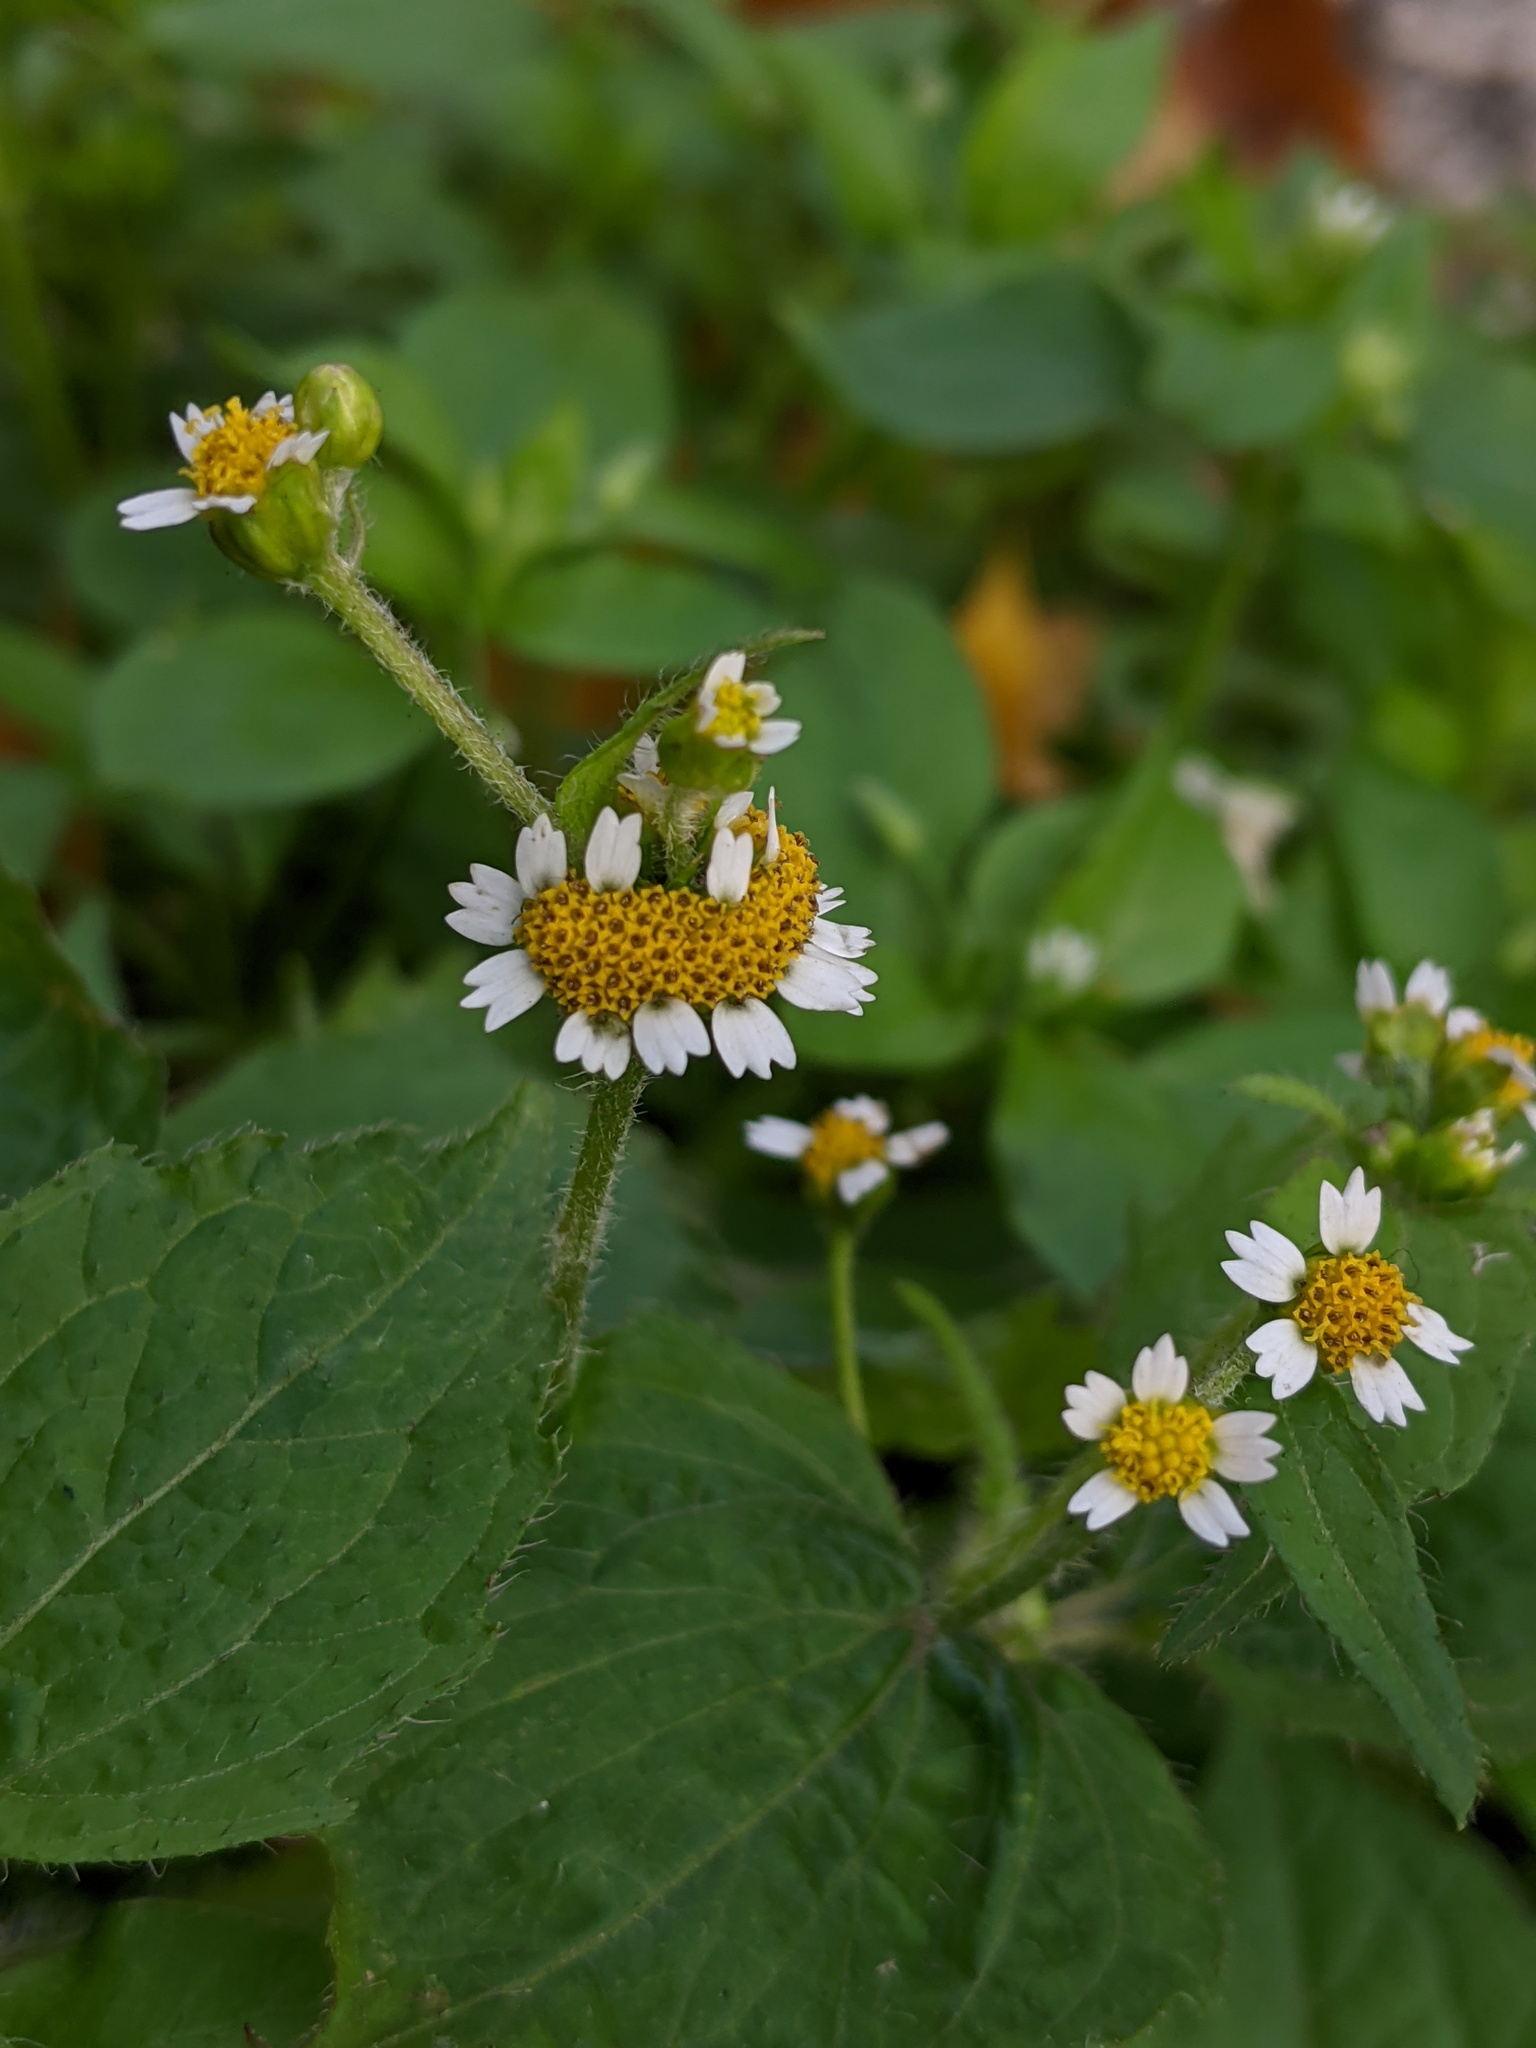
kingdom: Plantae
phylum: Tracheophyta
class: Magnoliopsida
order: Asterales
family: Asteraceae
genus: Galinsoga
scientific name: Galinsoga quadriradiata
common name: Shaggy soldier
